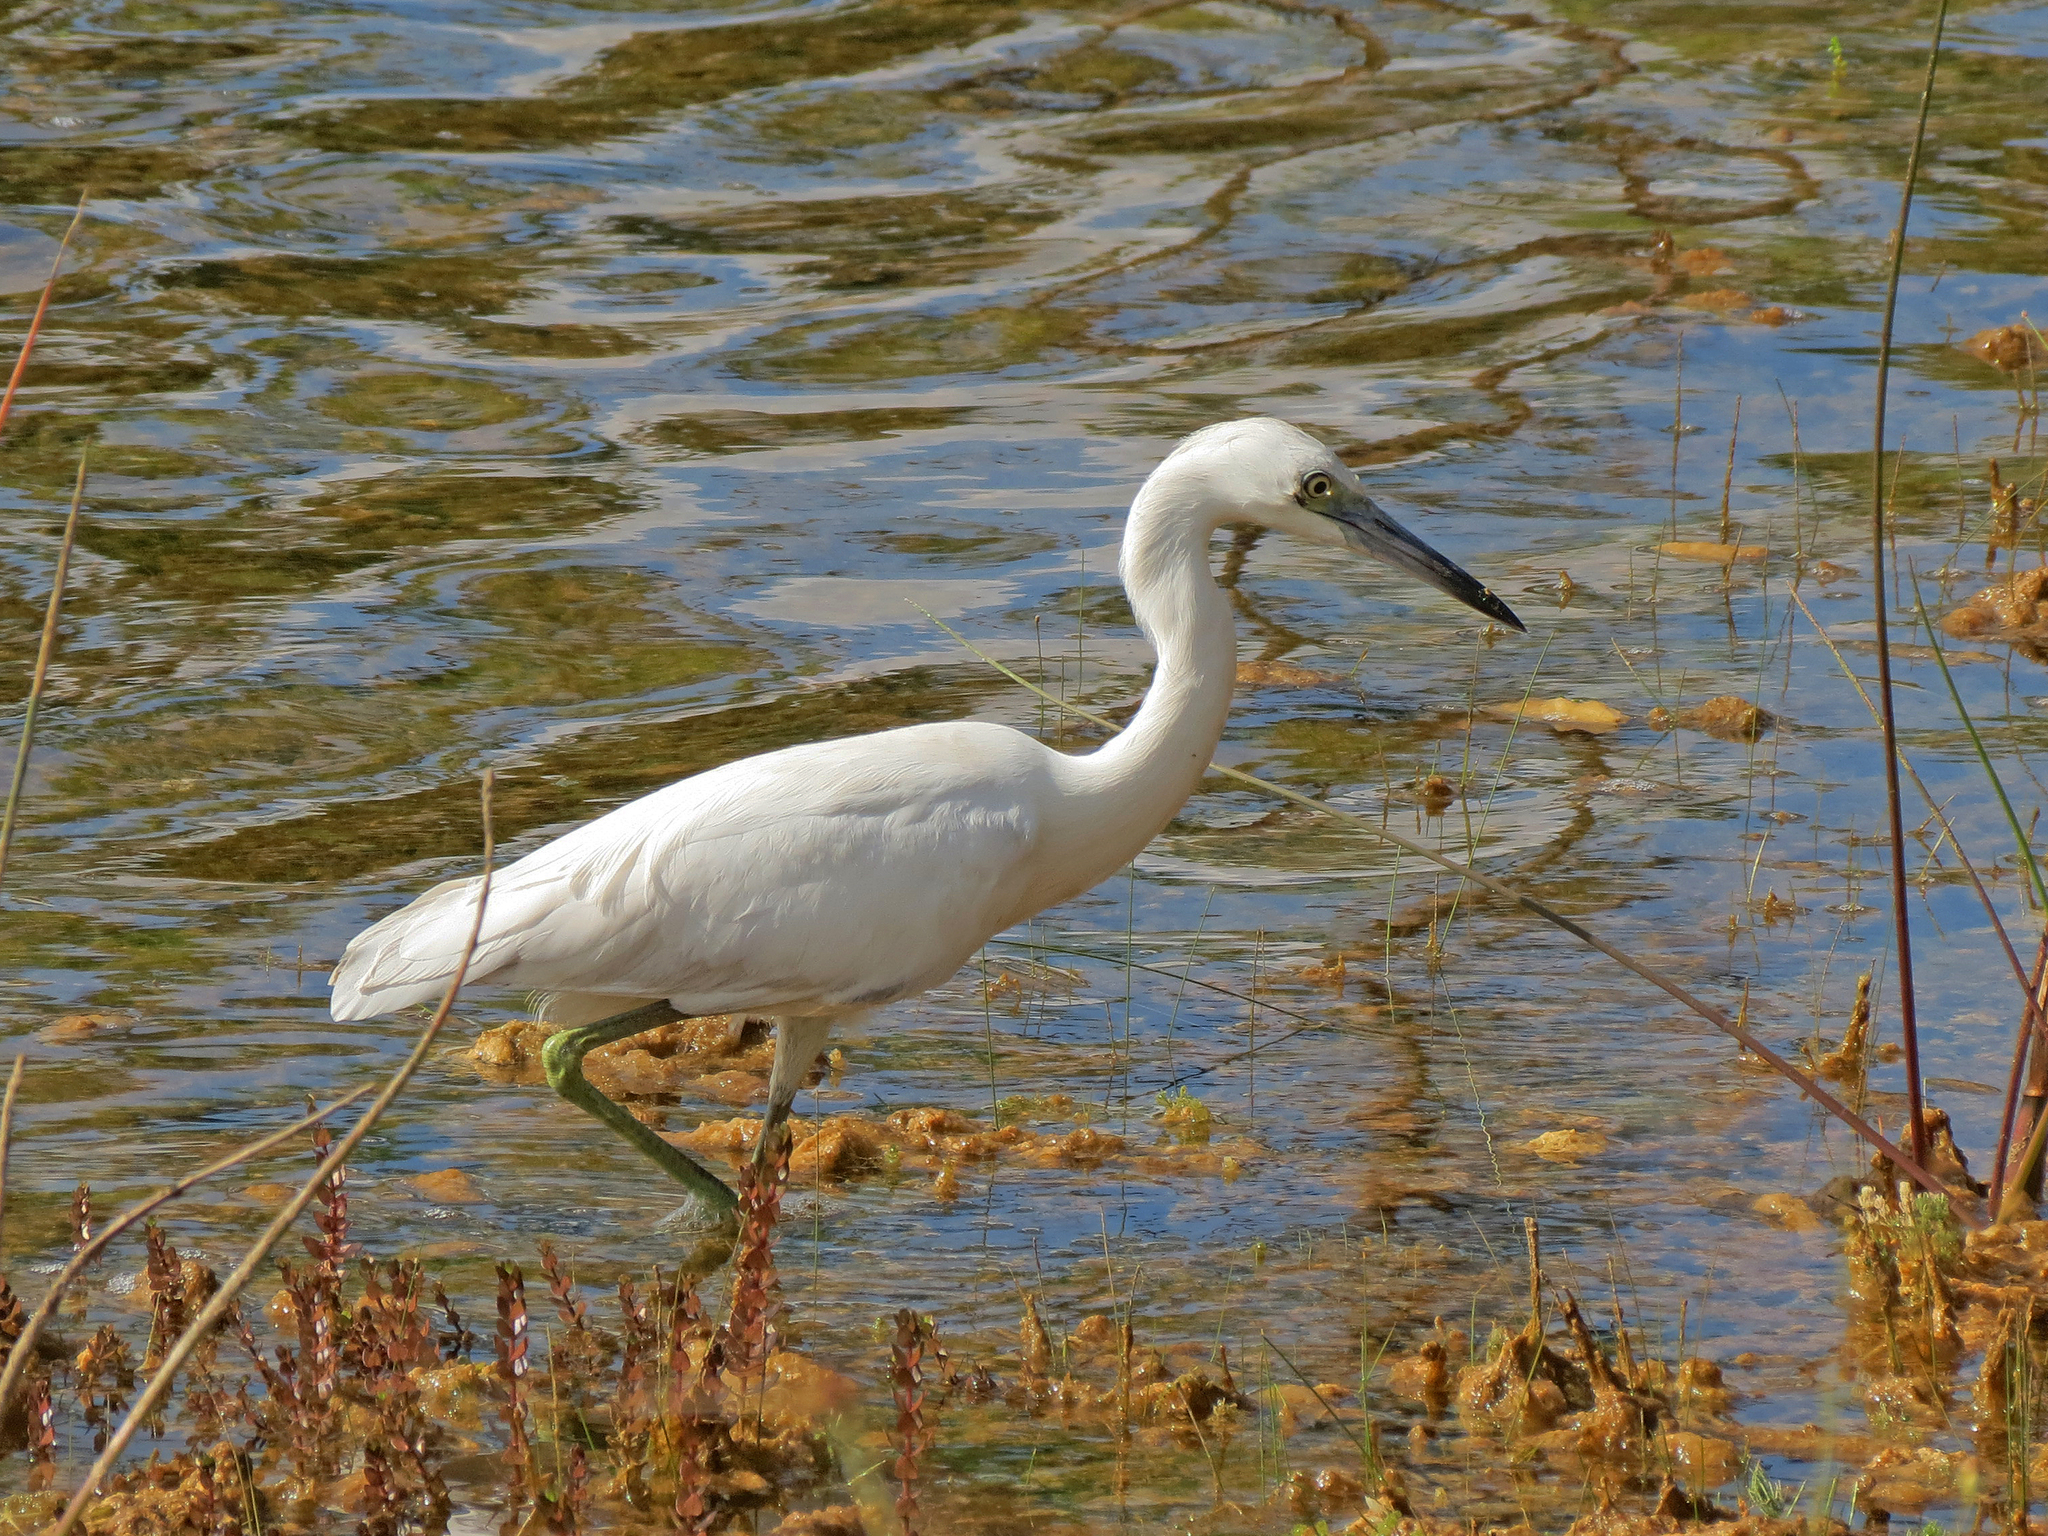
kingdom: Animalia
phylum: Chordata
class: Aves
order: Pelecaniformes
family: Ardeidae
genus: Egretta
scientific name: Egretta caerulea
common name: Little blue heron
